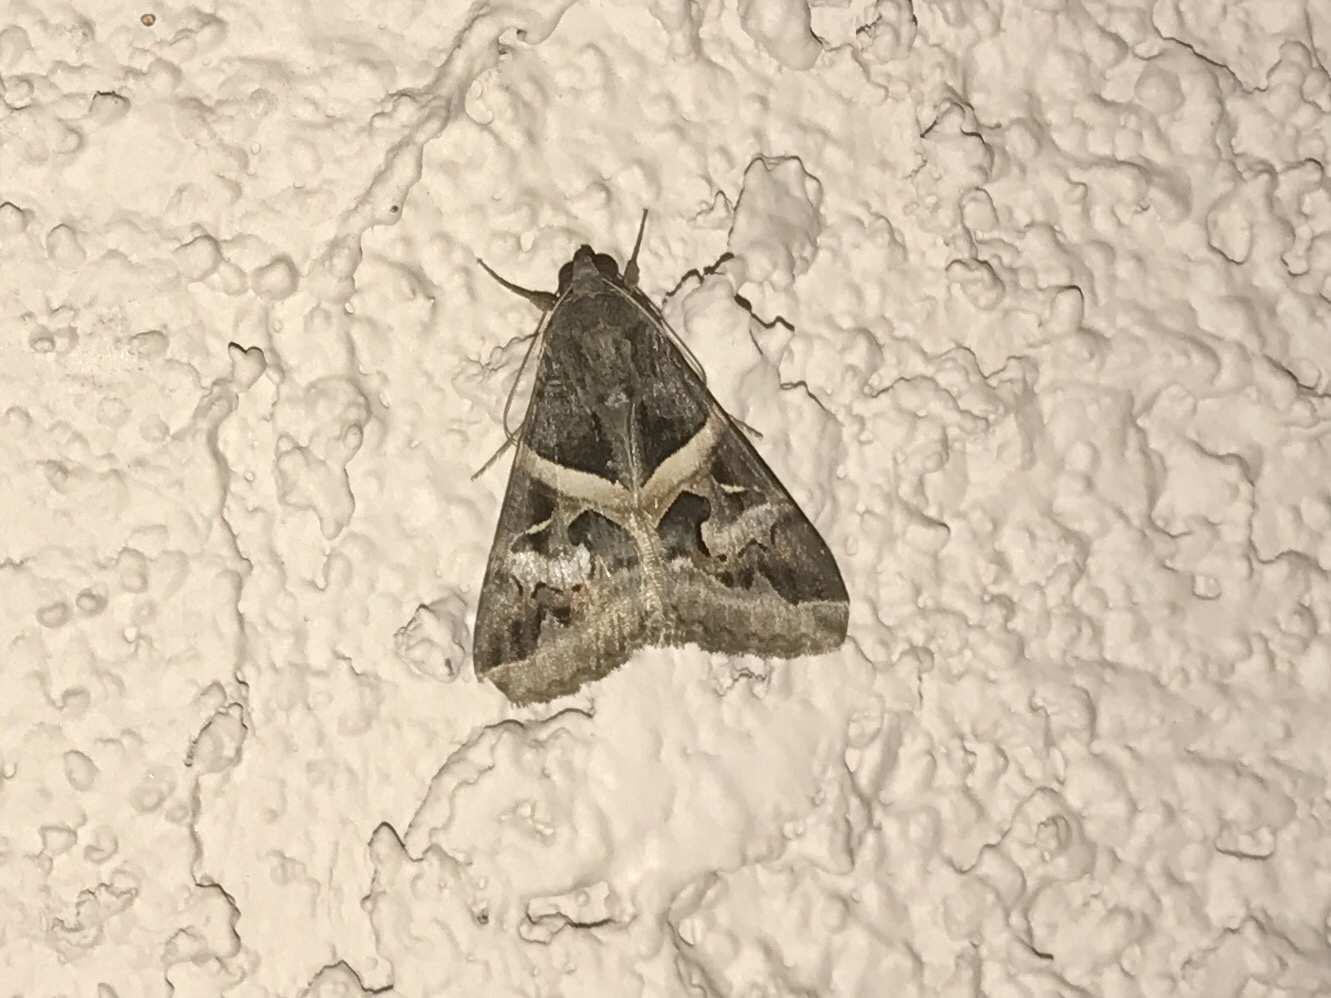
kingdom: Animalia
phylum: Arthropoda
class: Insecta
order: Lepidoptera
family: Erebidae
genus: Melipotis
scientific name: Melipotis indomita
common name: Moth
